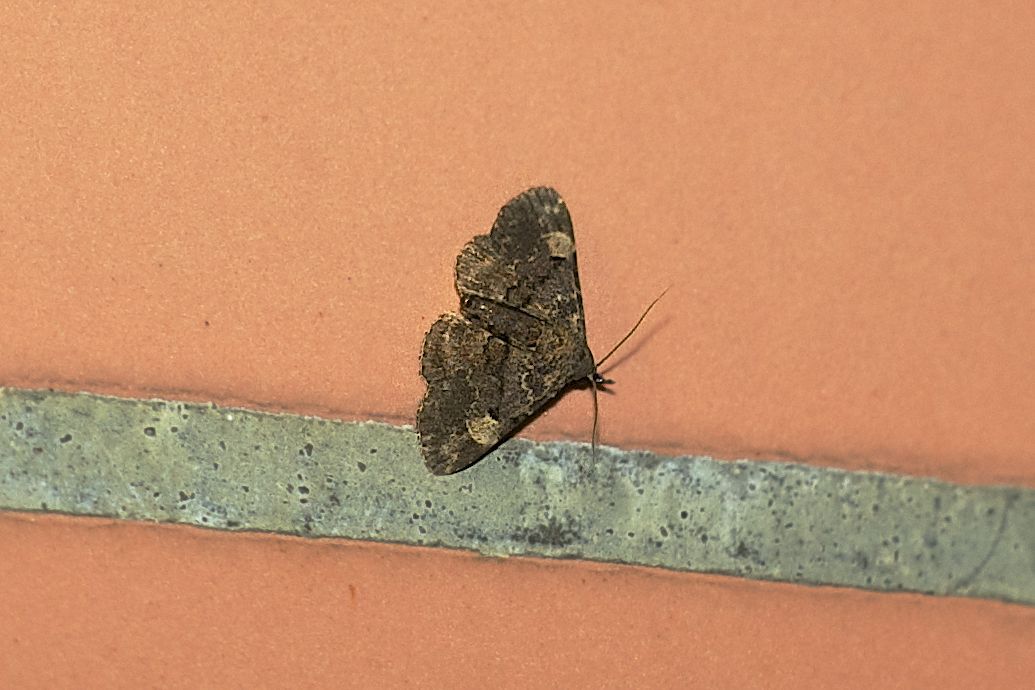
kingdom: Animalia
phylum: Arthropoda
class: Insecta
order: Lepidoptera
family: Erebidae
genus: Maguda
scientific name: Maguda suffusa
